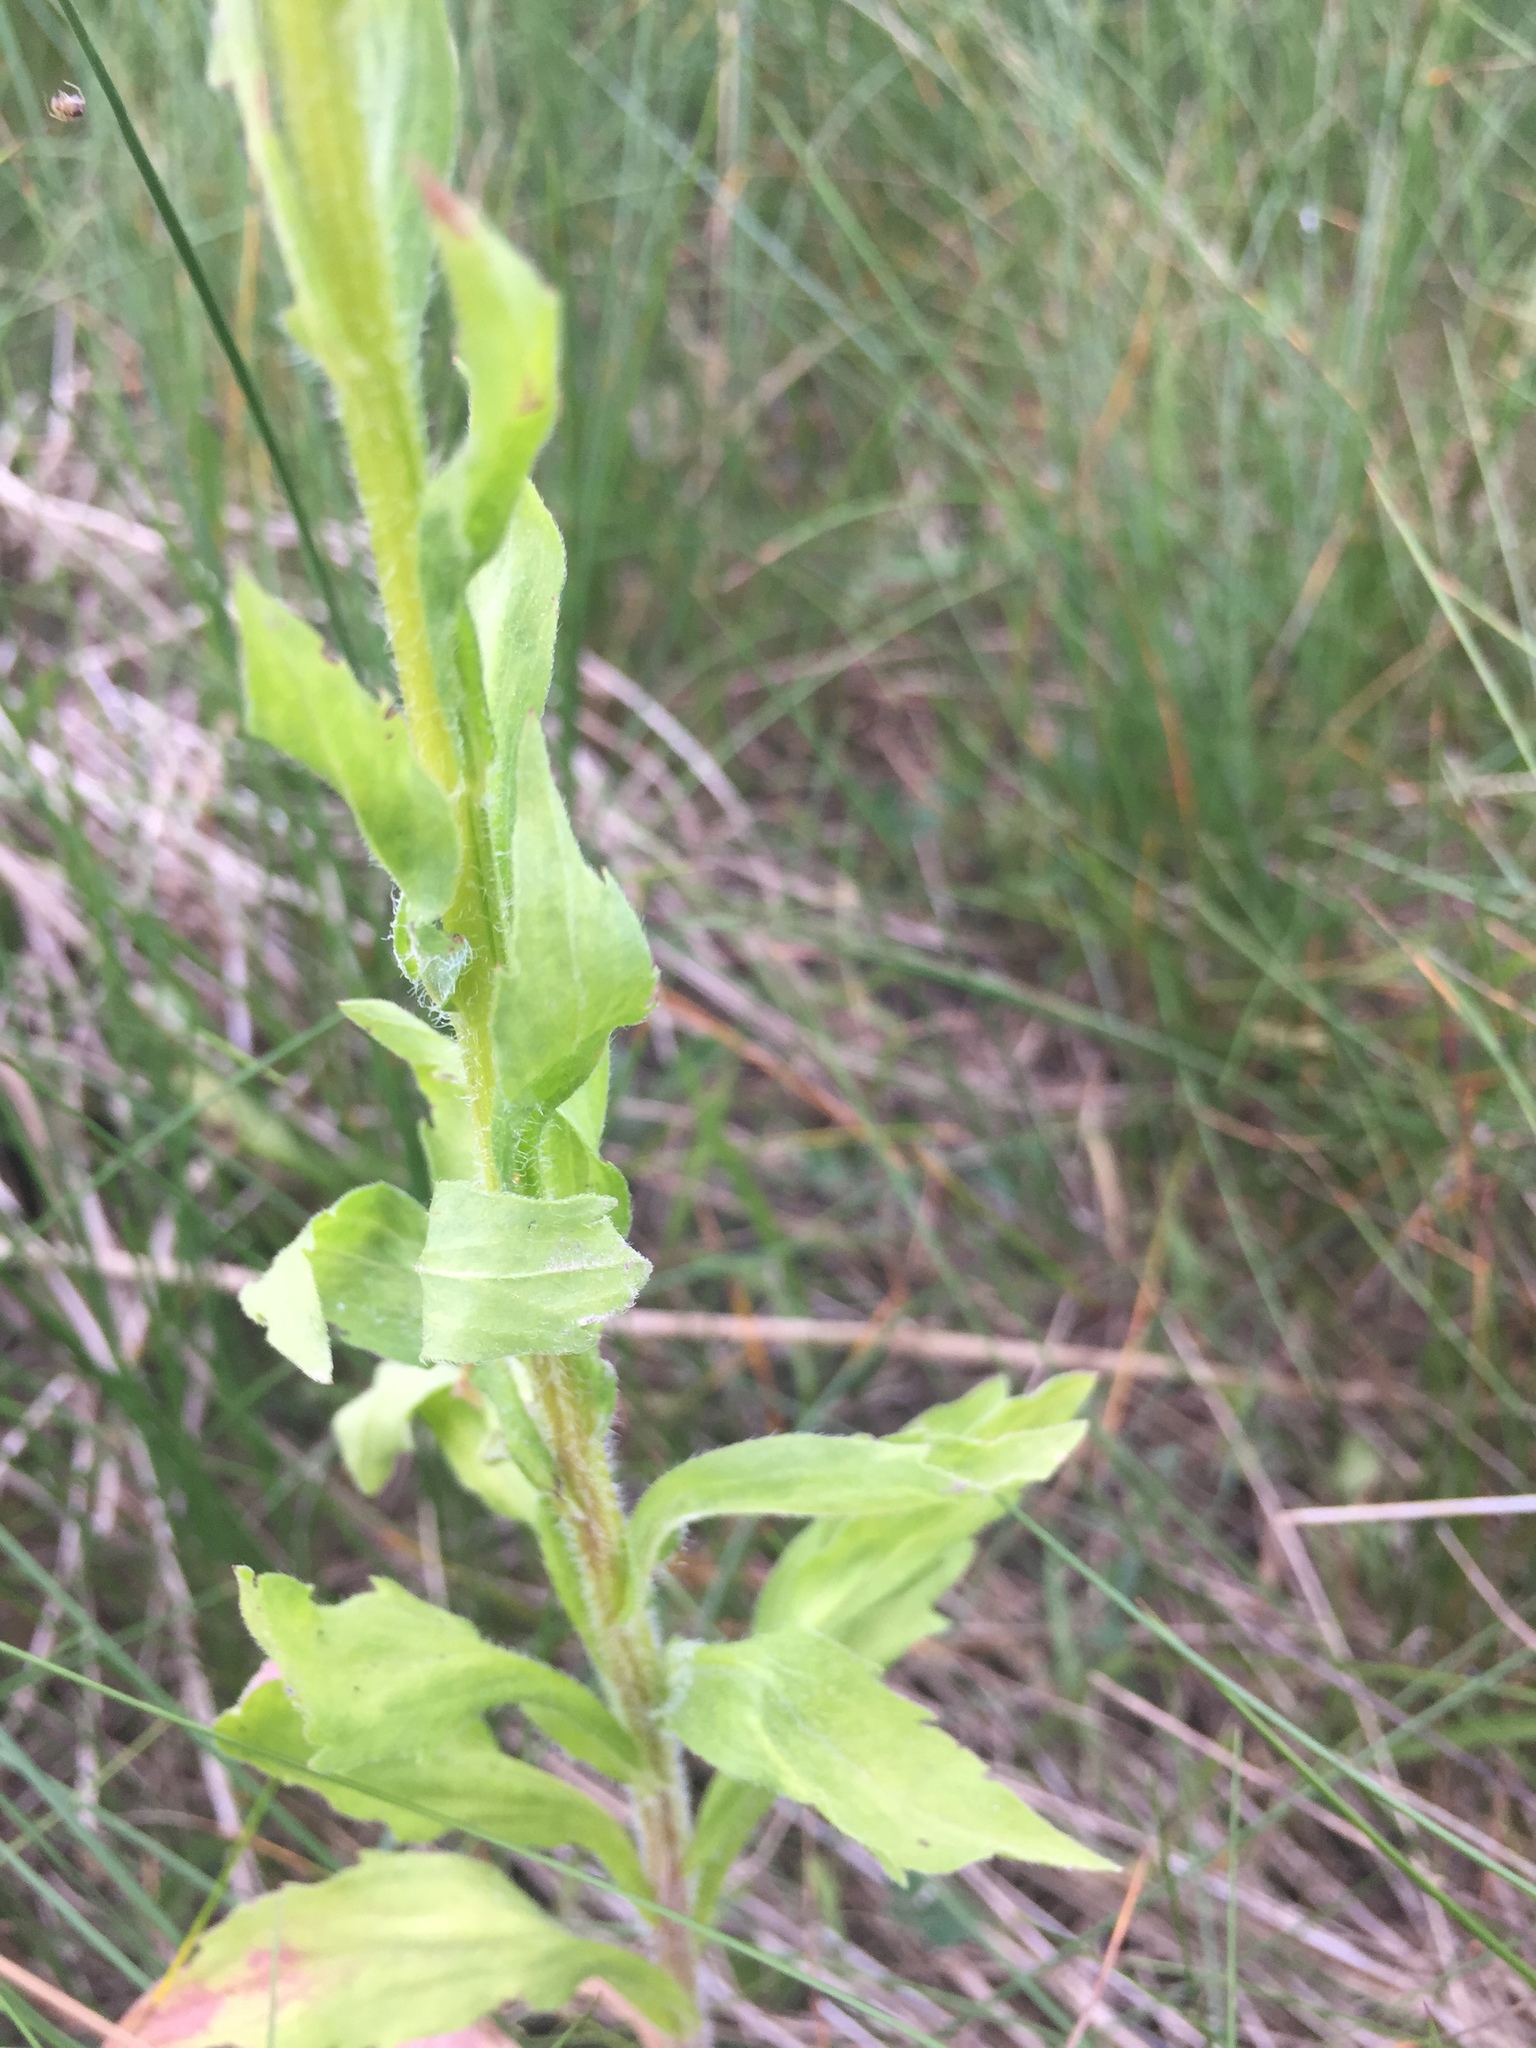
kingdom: Plantae
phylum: Tracheophyta
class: Magnoliopsida
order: Asterales
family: Asteraceae
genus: Erigeron
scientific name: Erigeron annuus
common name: Tall fleabane
